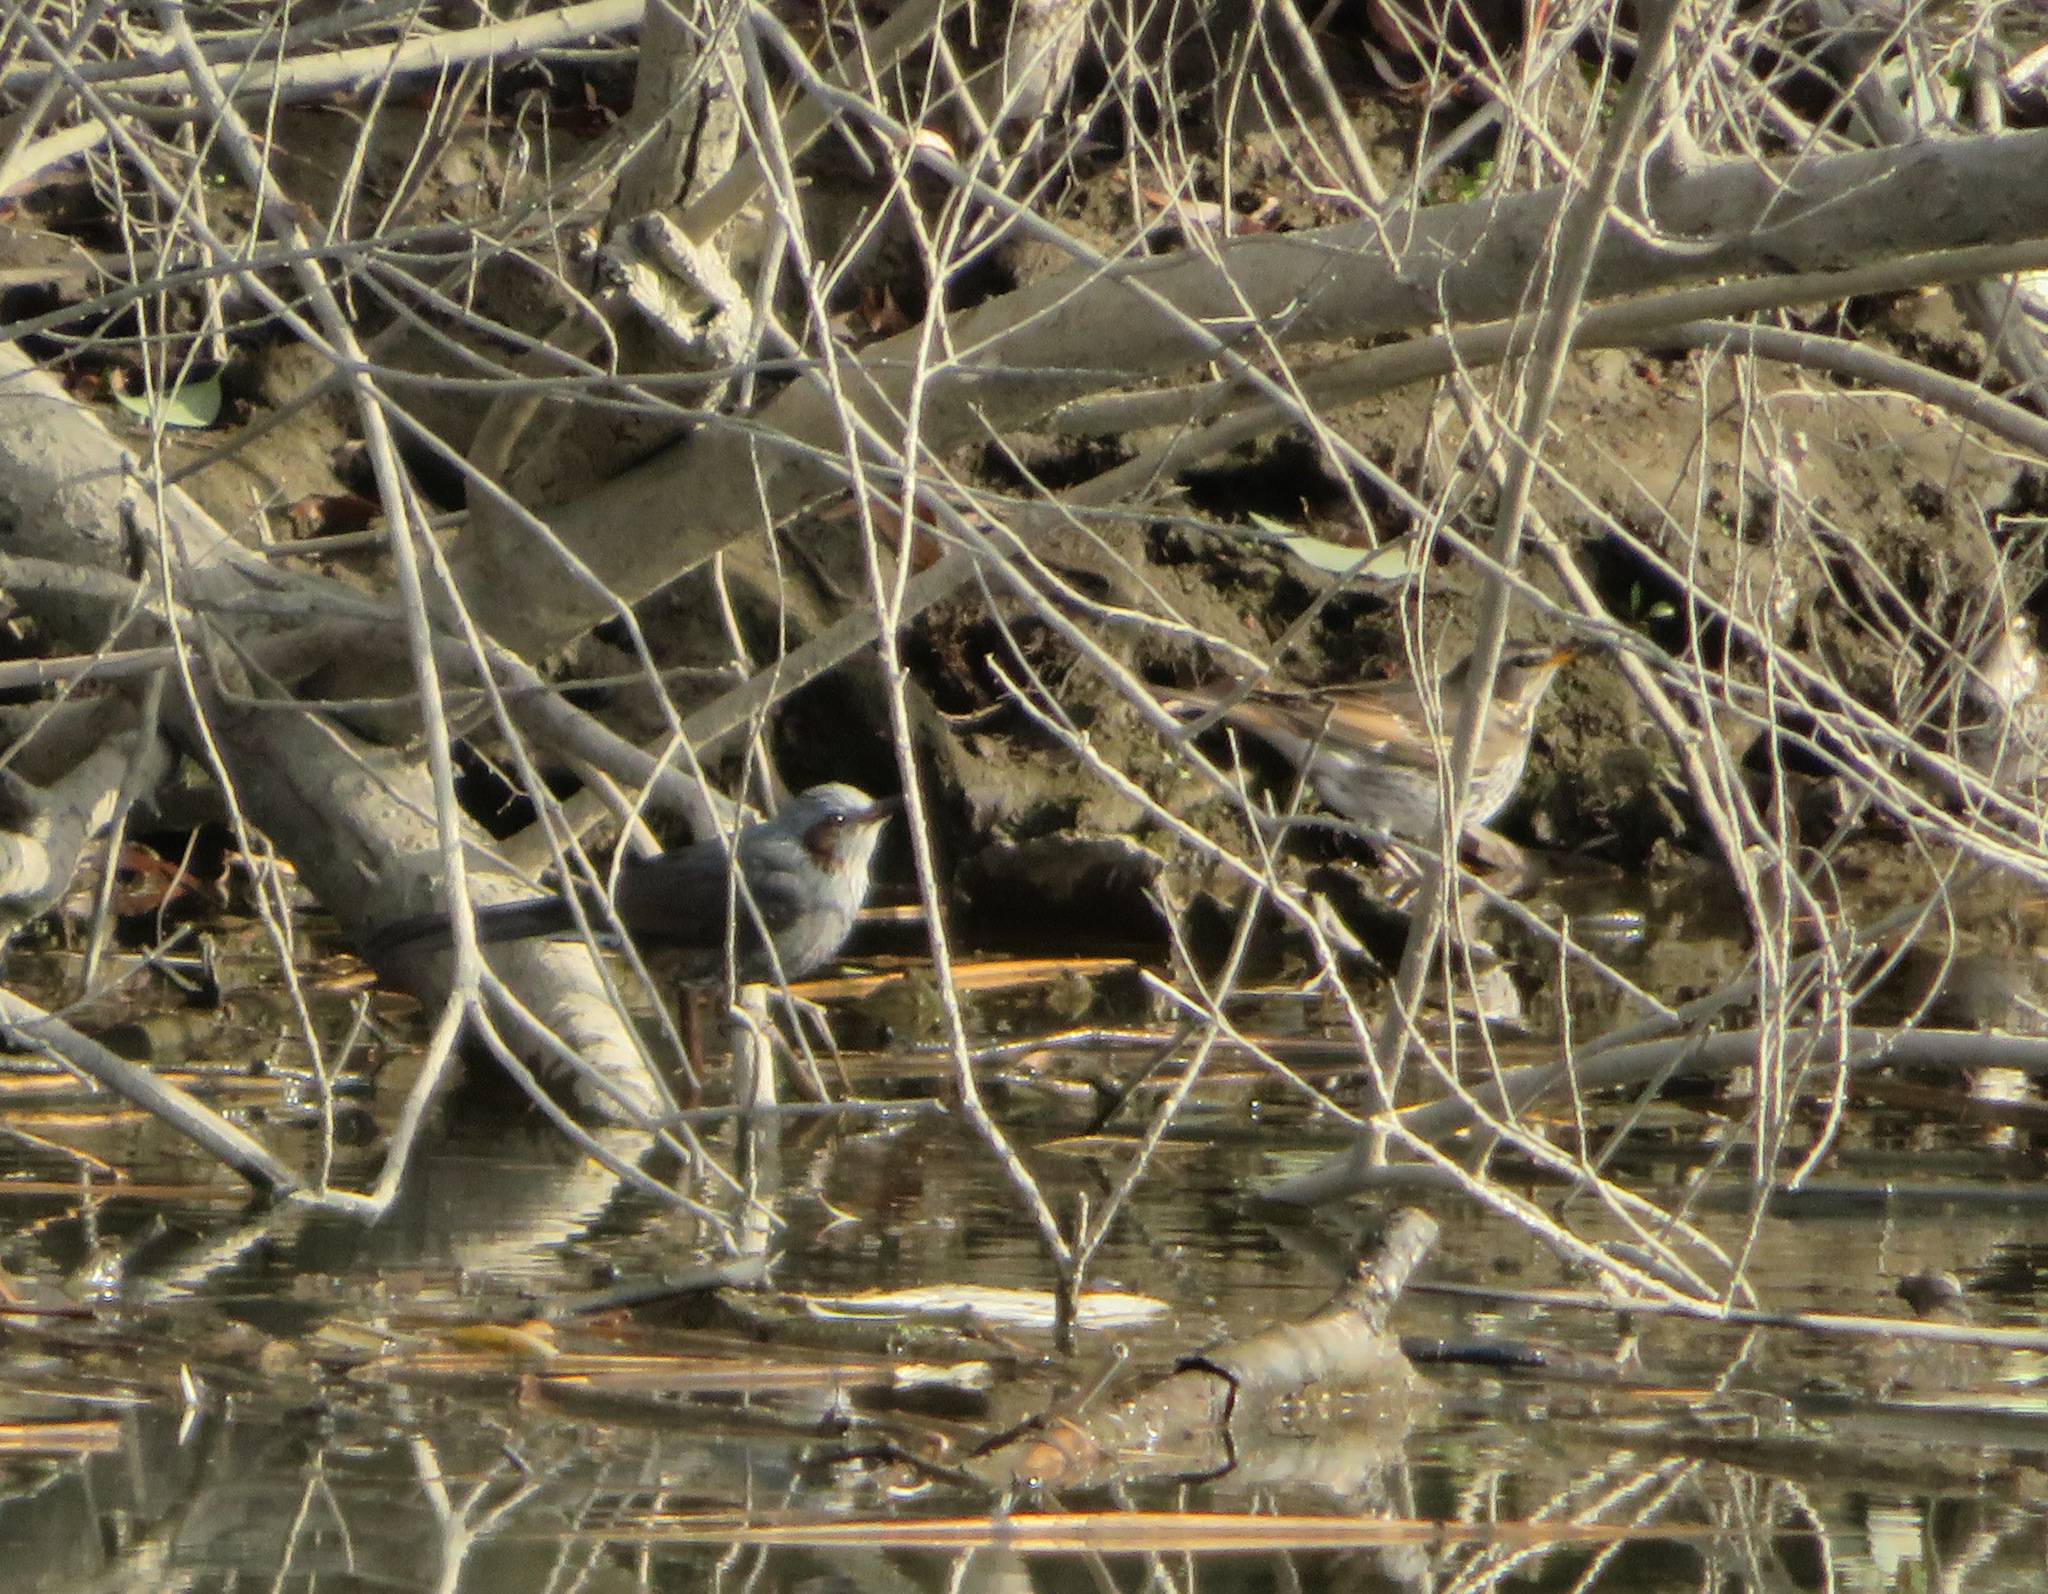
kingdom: Animalia
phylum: Chordata
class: Aves
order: Passeriformes
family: Pycnonotidae
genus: Hypsipetes
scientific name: Hypsipetes amaurotis
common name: Brown-eared bulbul
